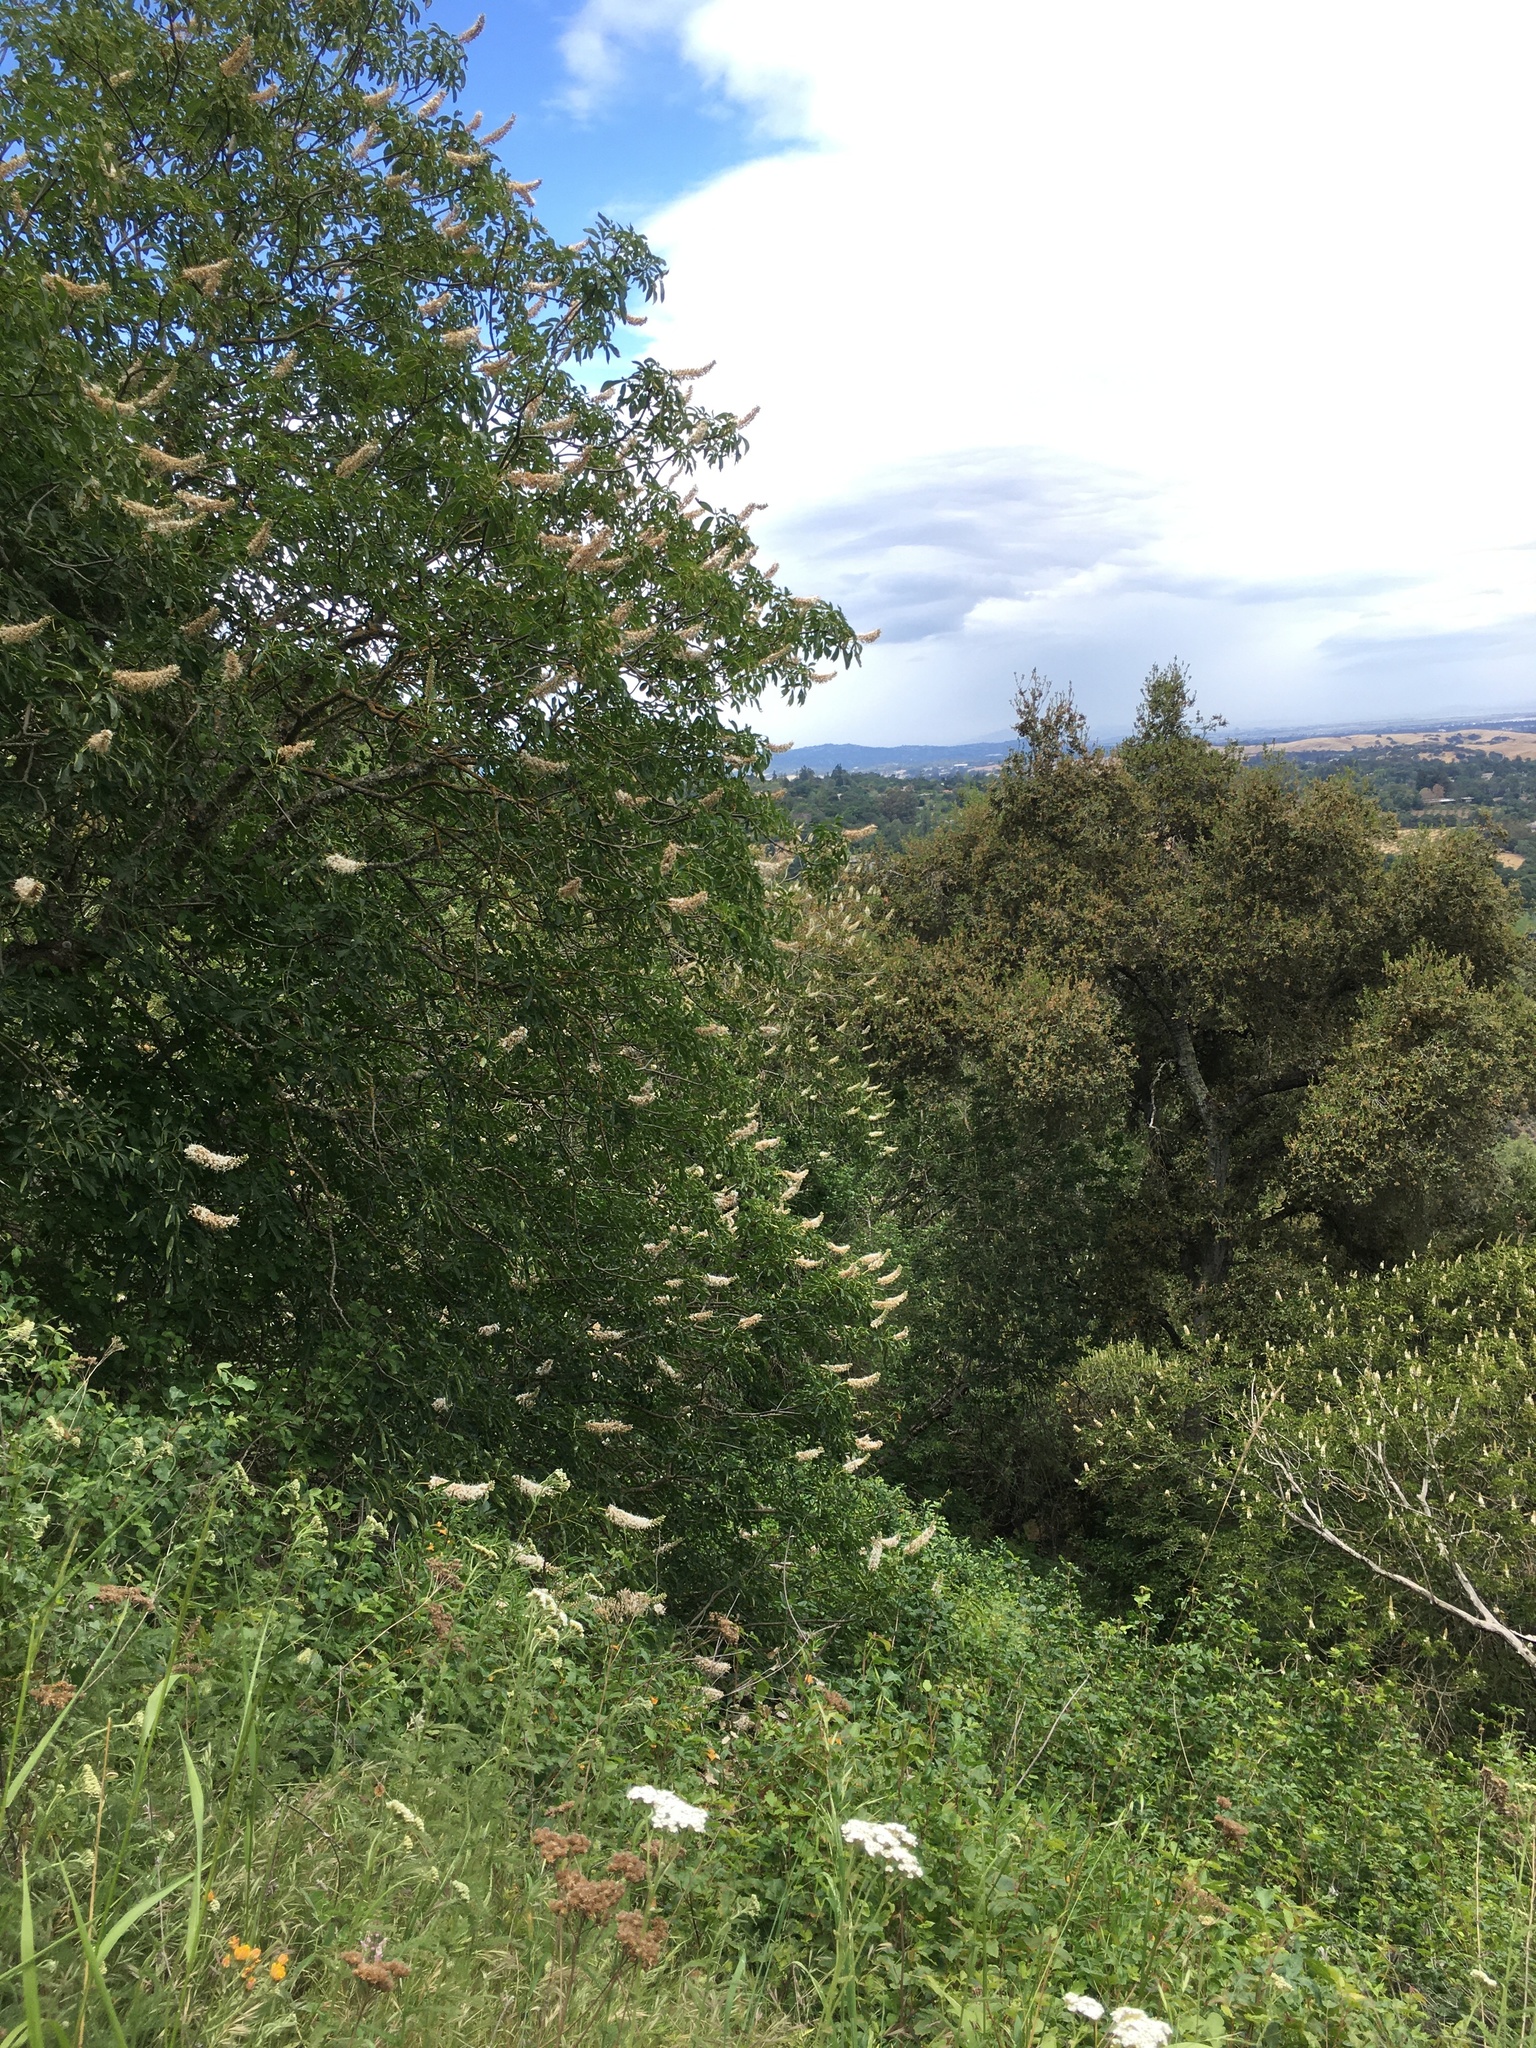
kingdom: Plantae
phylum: Tracheophyta
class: Magnoliopsida
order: Sapindales
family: Sapindaceae
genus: Aesculus
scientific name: Aesculus californica
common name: California buckeye
